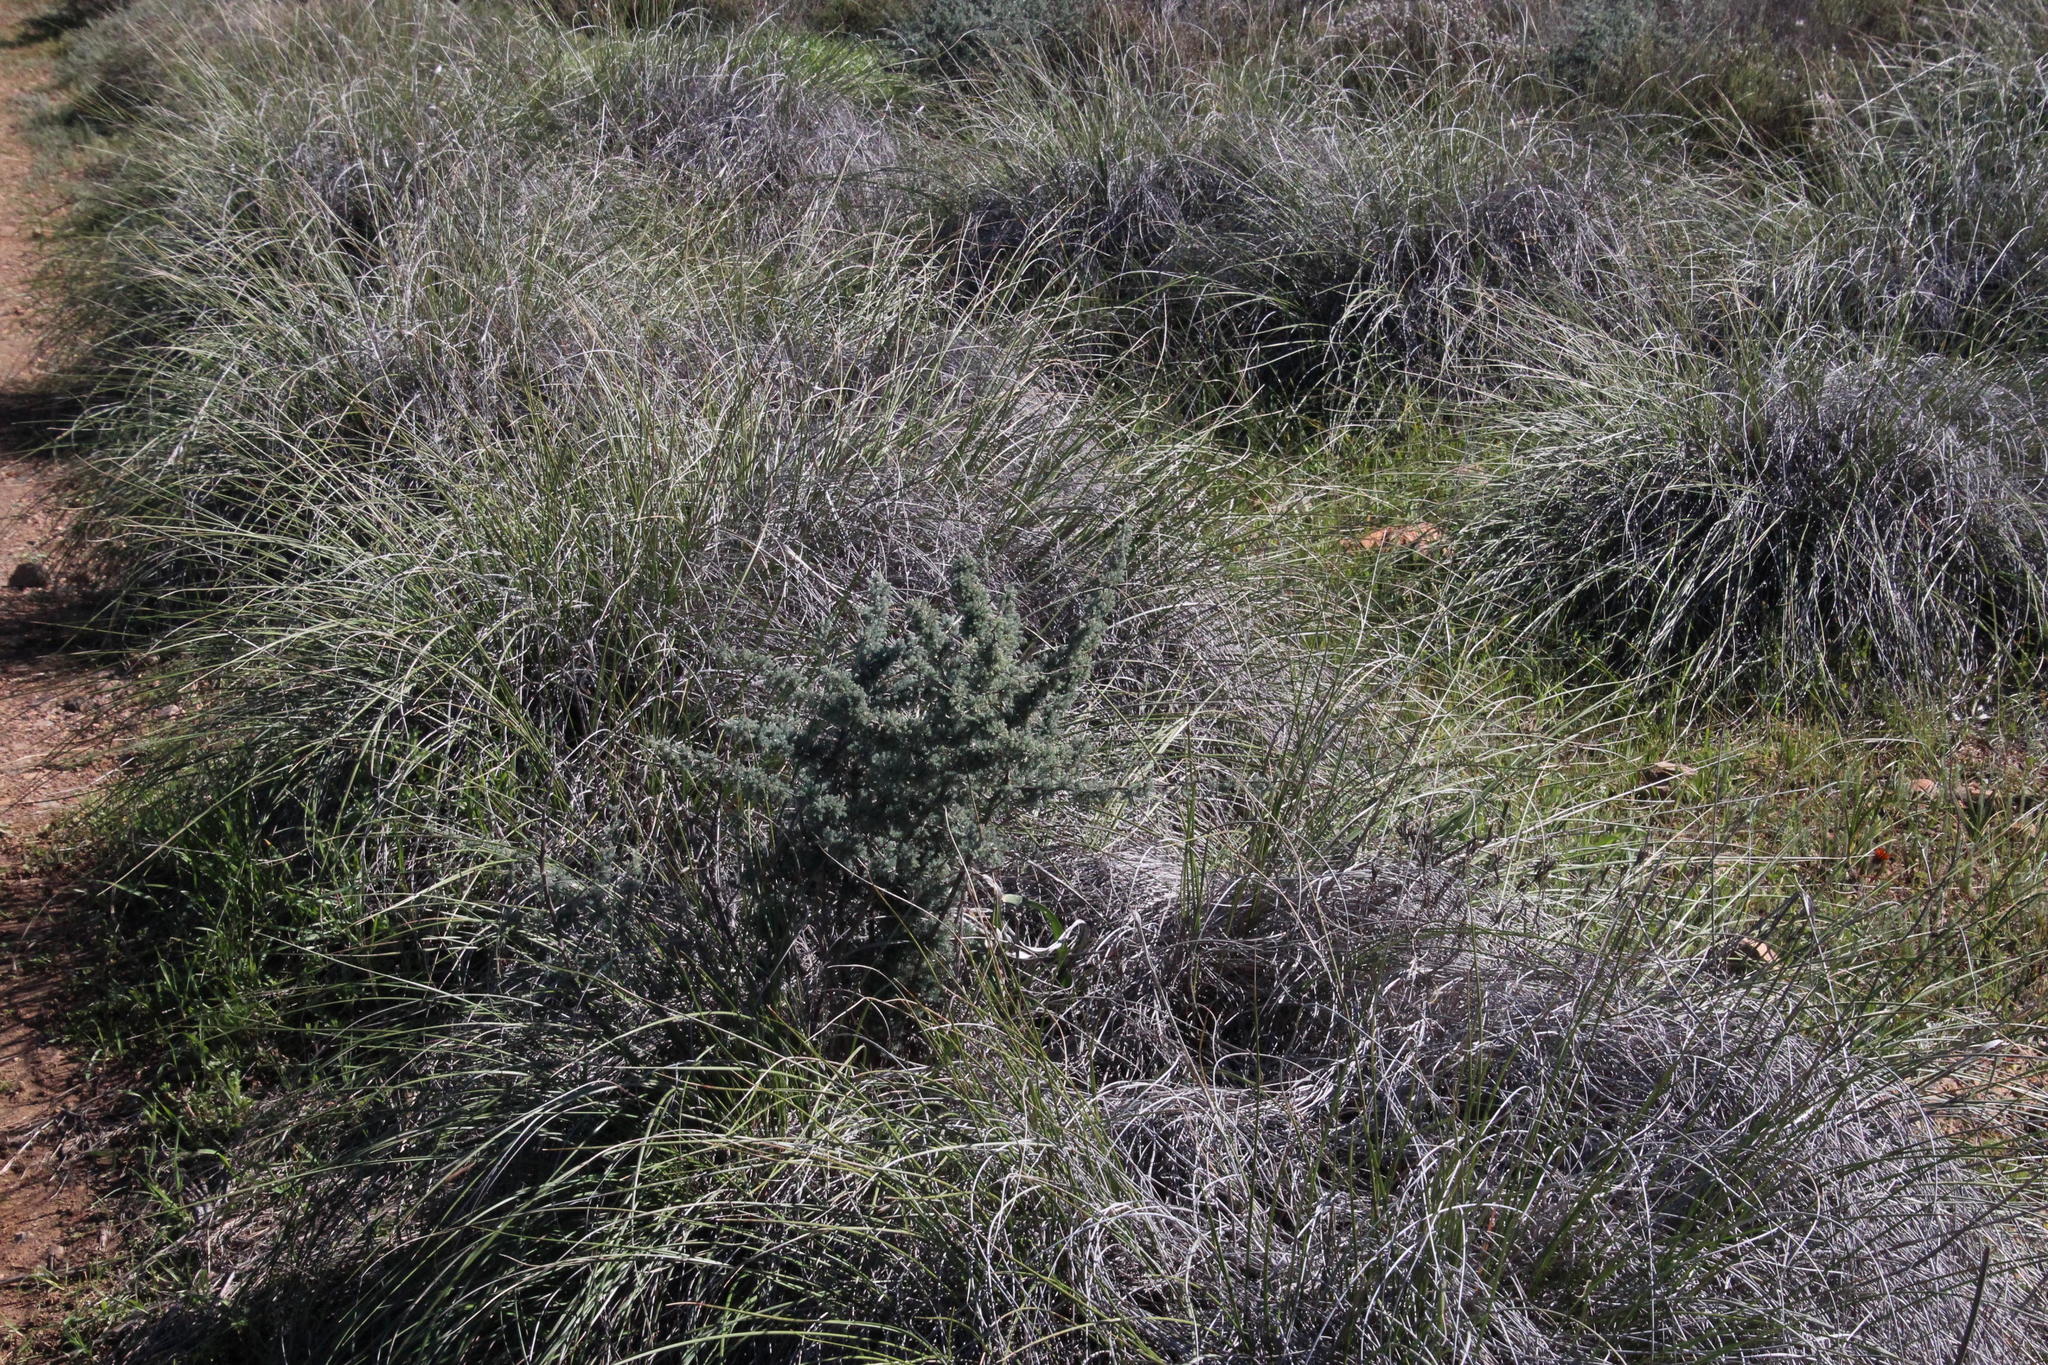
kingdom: Plantae
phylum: Tracheophyta
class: Liliopsida
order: Asparagales
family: Asparagaceae
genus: Asparagus
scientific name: Asparagus capensis
